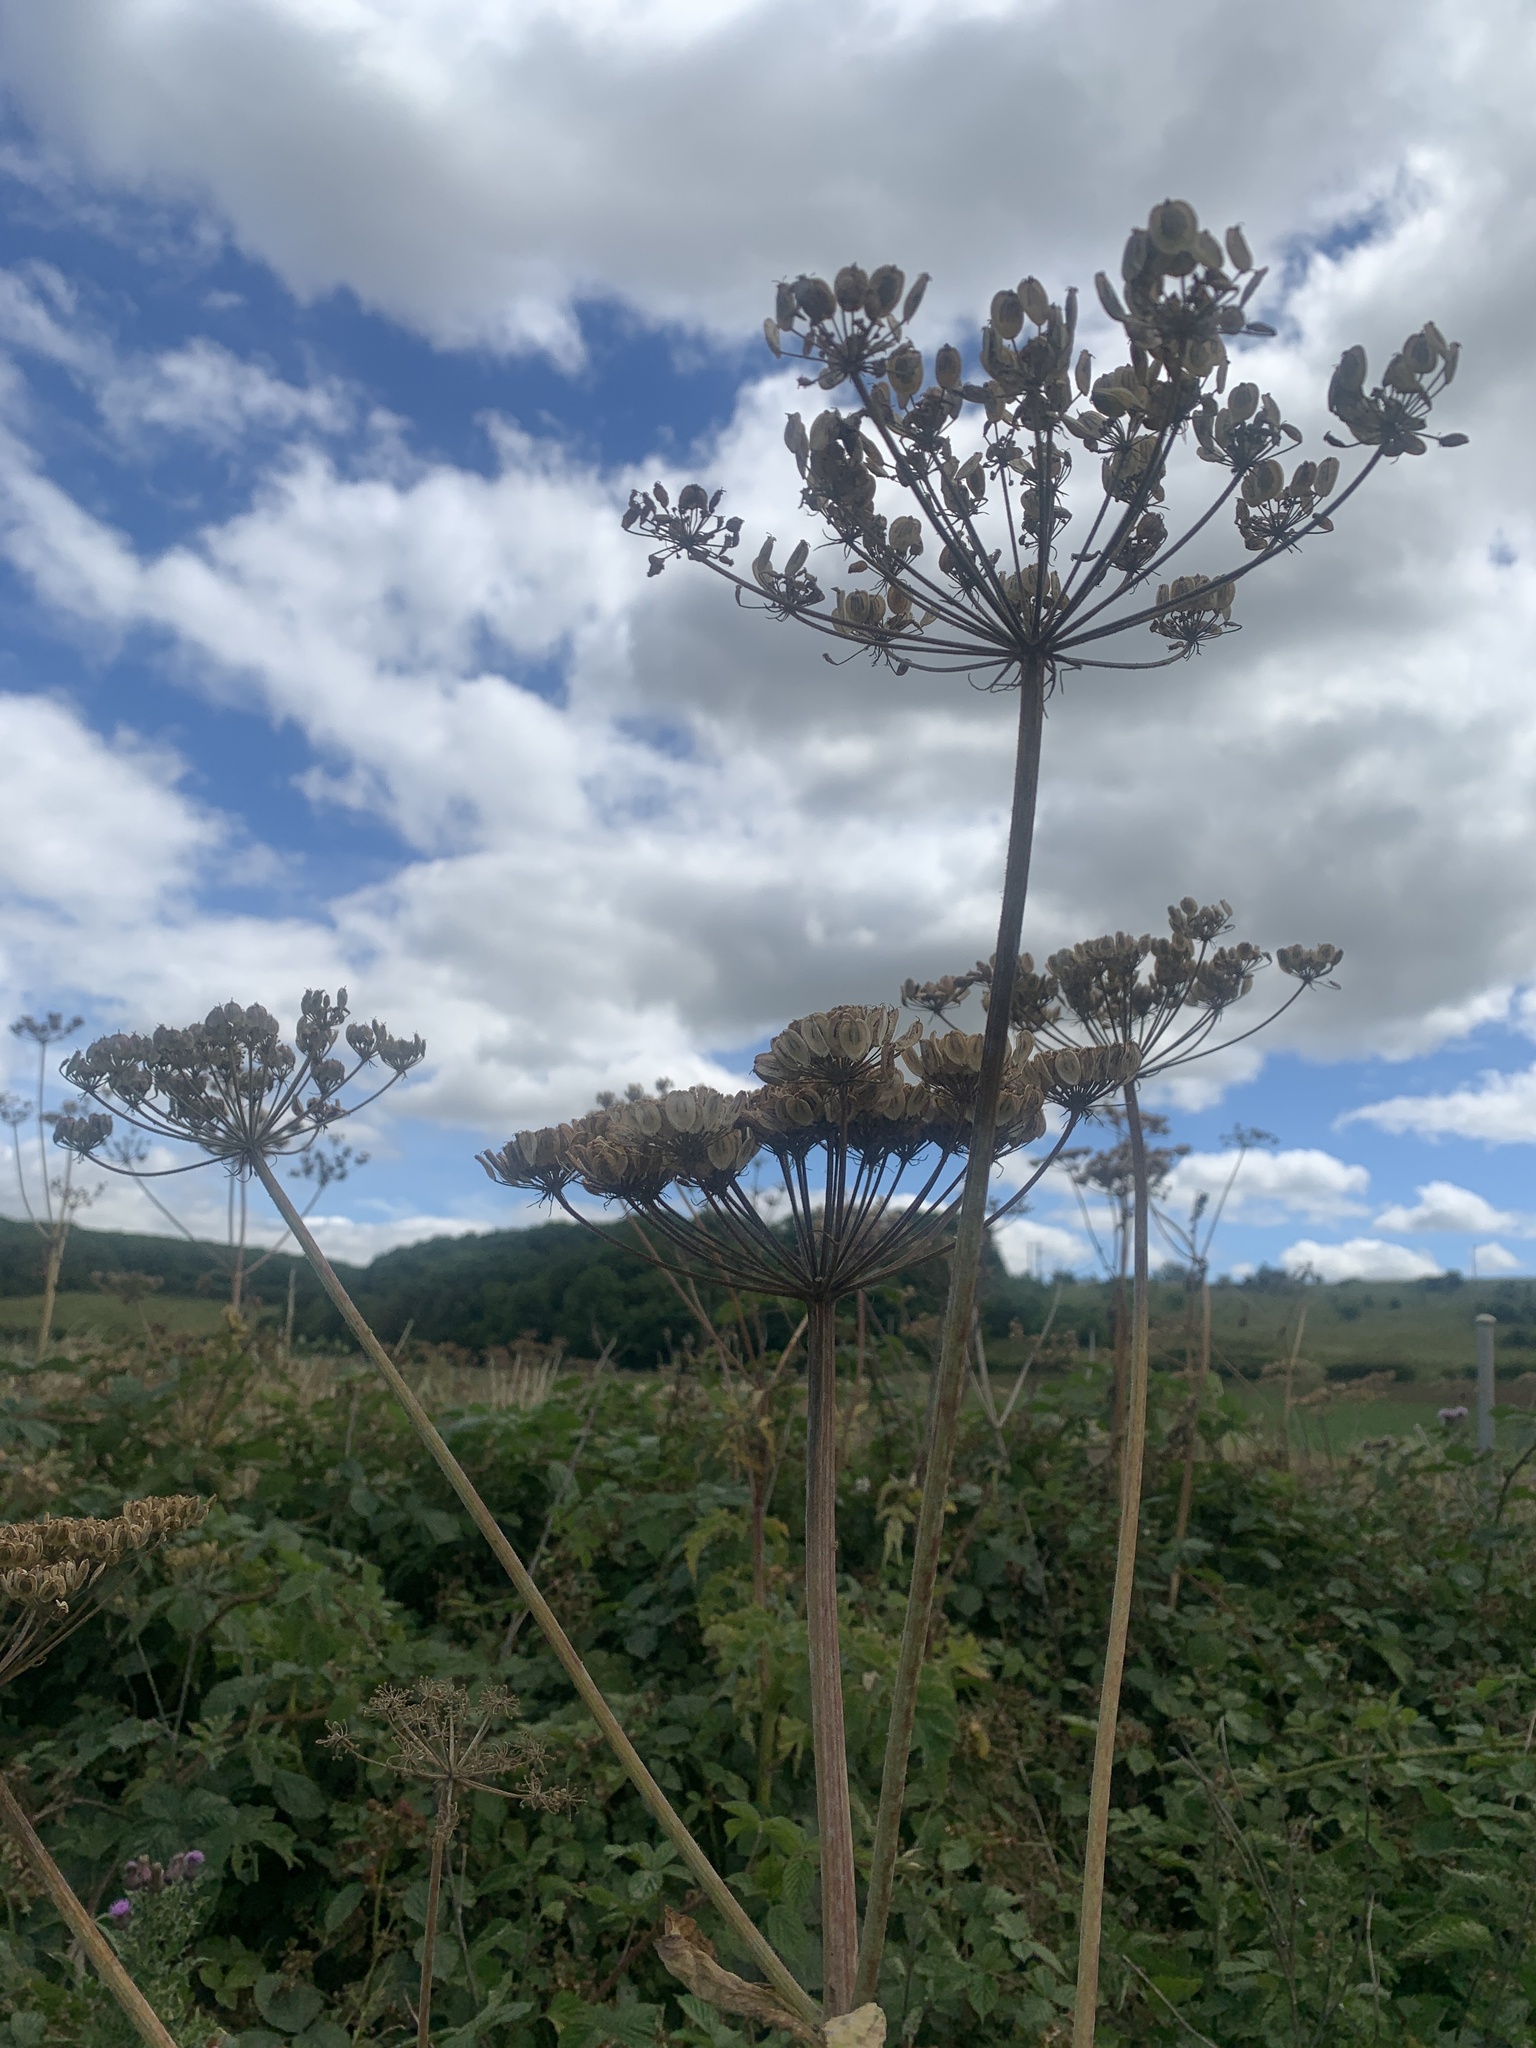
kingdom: Plantae
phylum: Tracheophyta
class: Magnoliopsida
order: Apiales
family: Apiaceae
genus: Heracleum
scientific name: Heracleum mantegazzianum
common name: Giant hogweed
